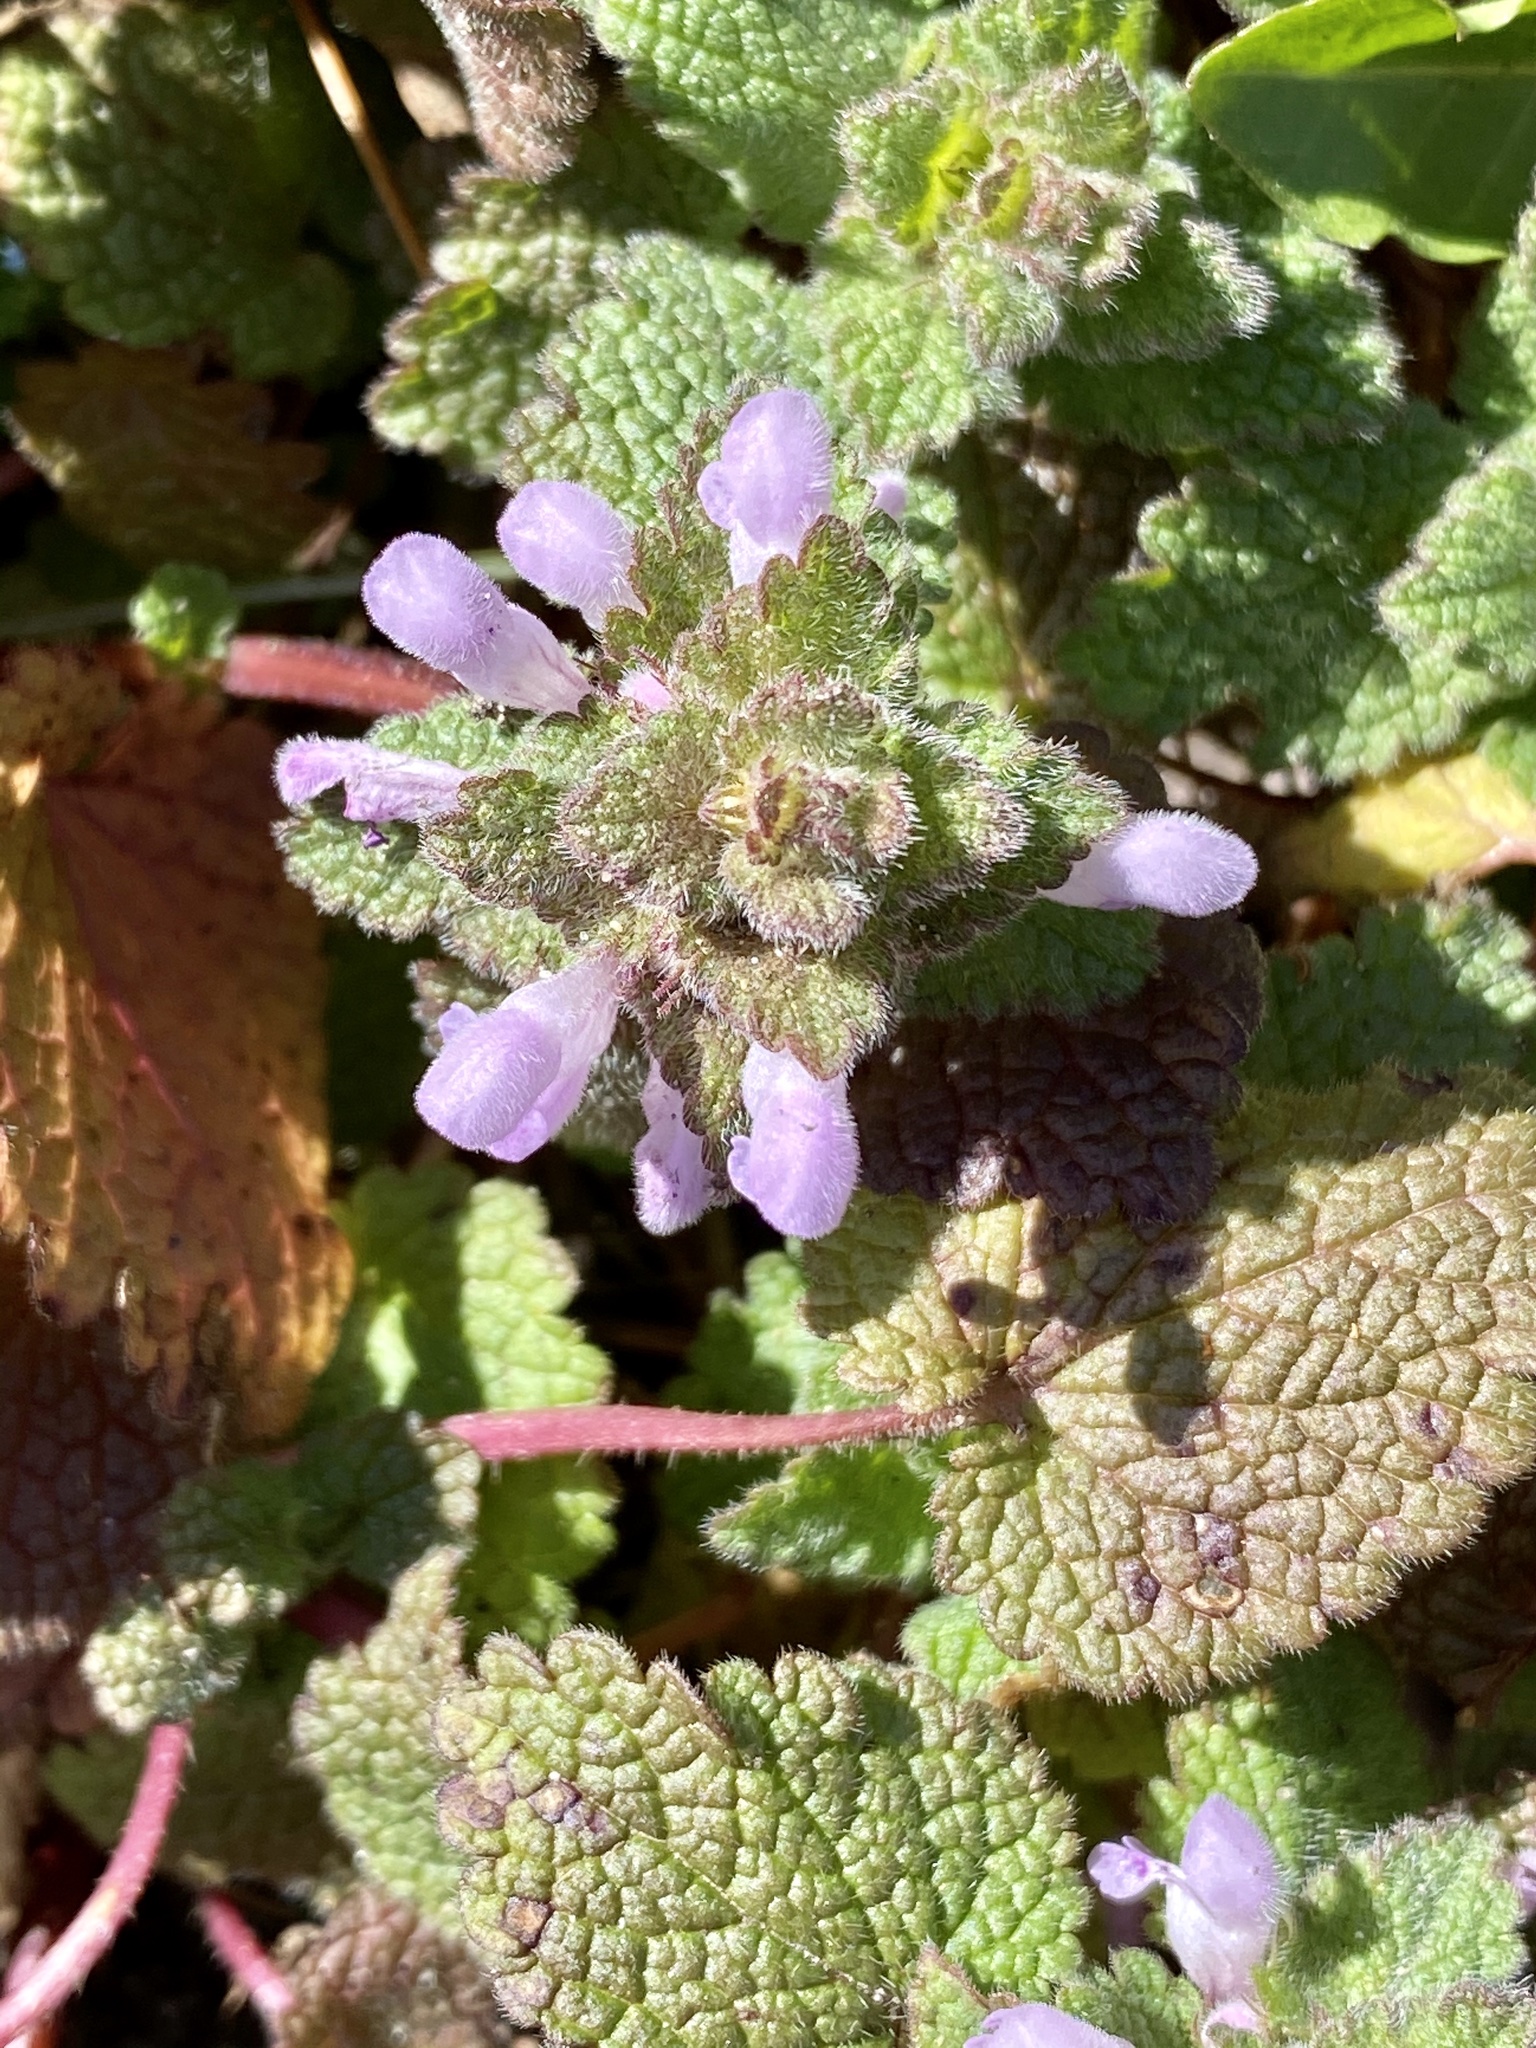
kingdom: Plantae
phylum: Tracheophyta
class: Magnoliopsida
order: Lamiales
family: Lamiaceae
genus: Lamium
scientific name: Lamium purpureum
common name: Red dead-nettle
